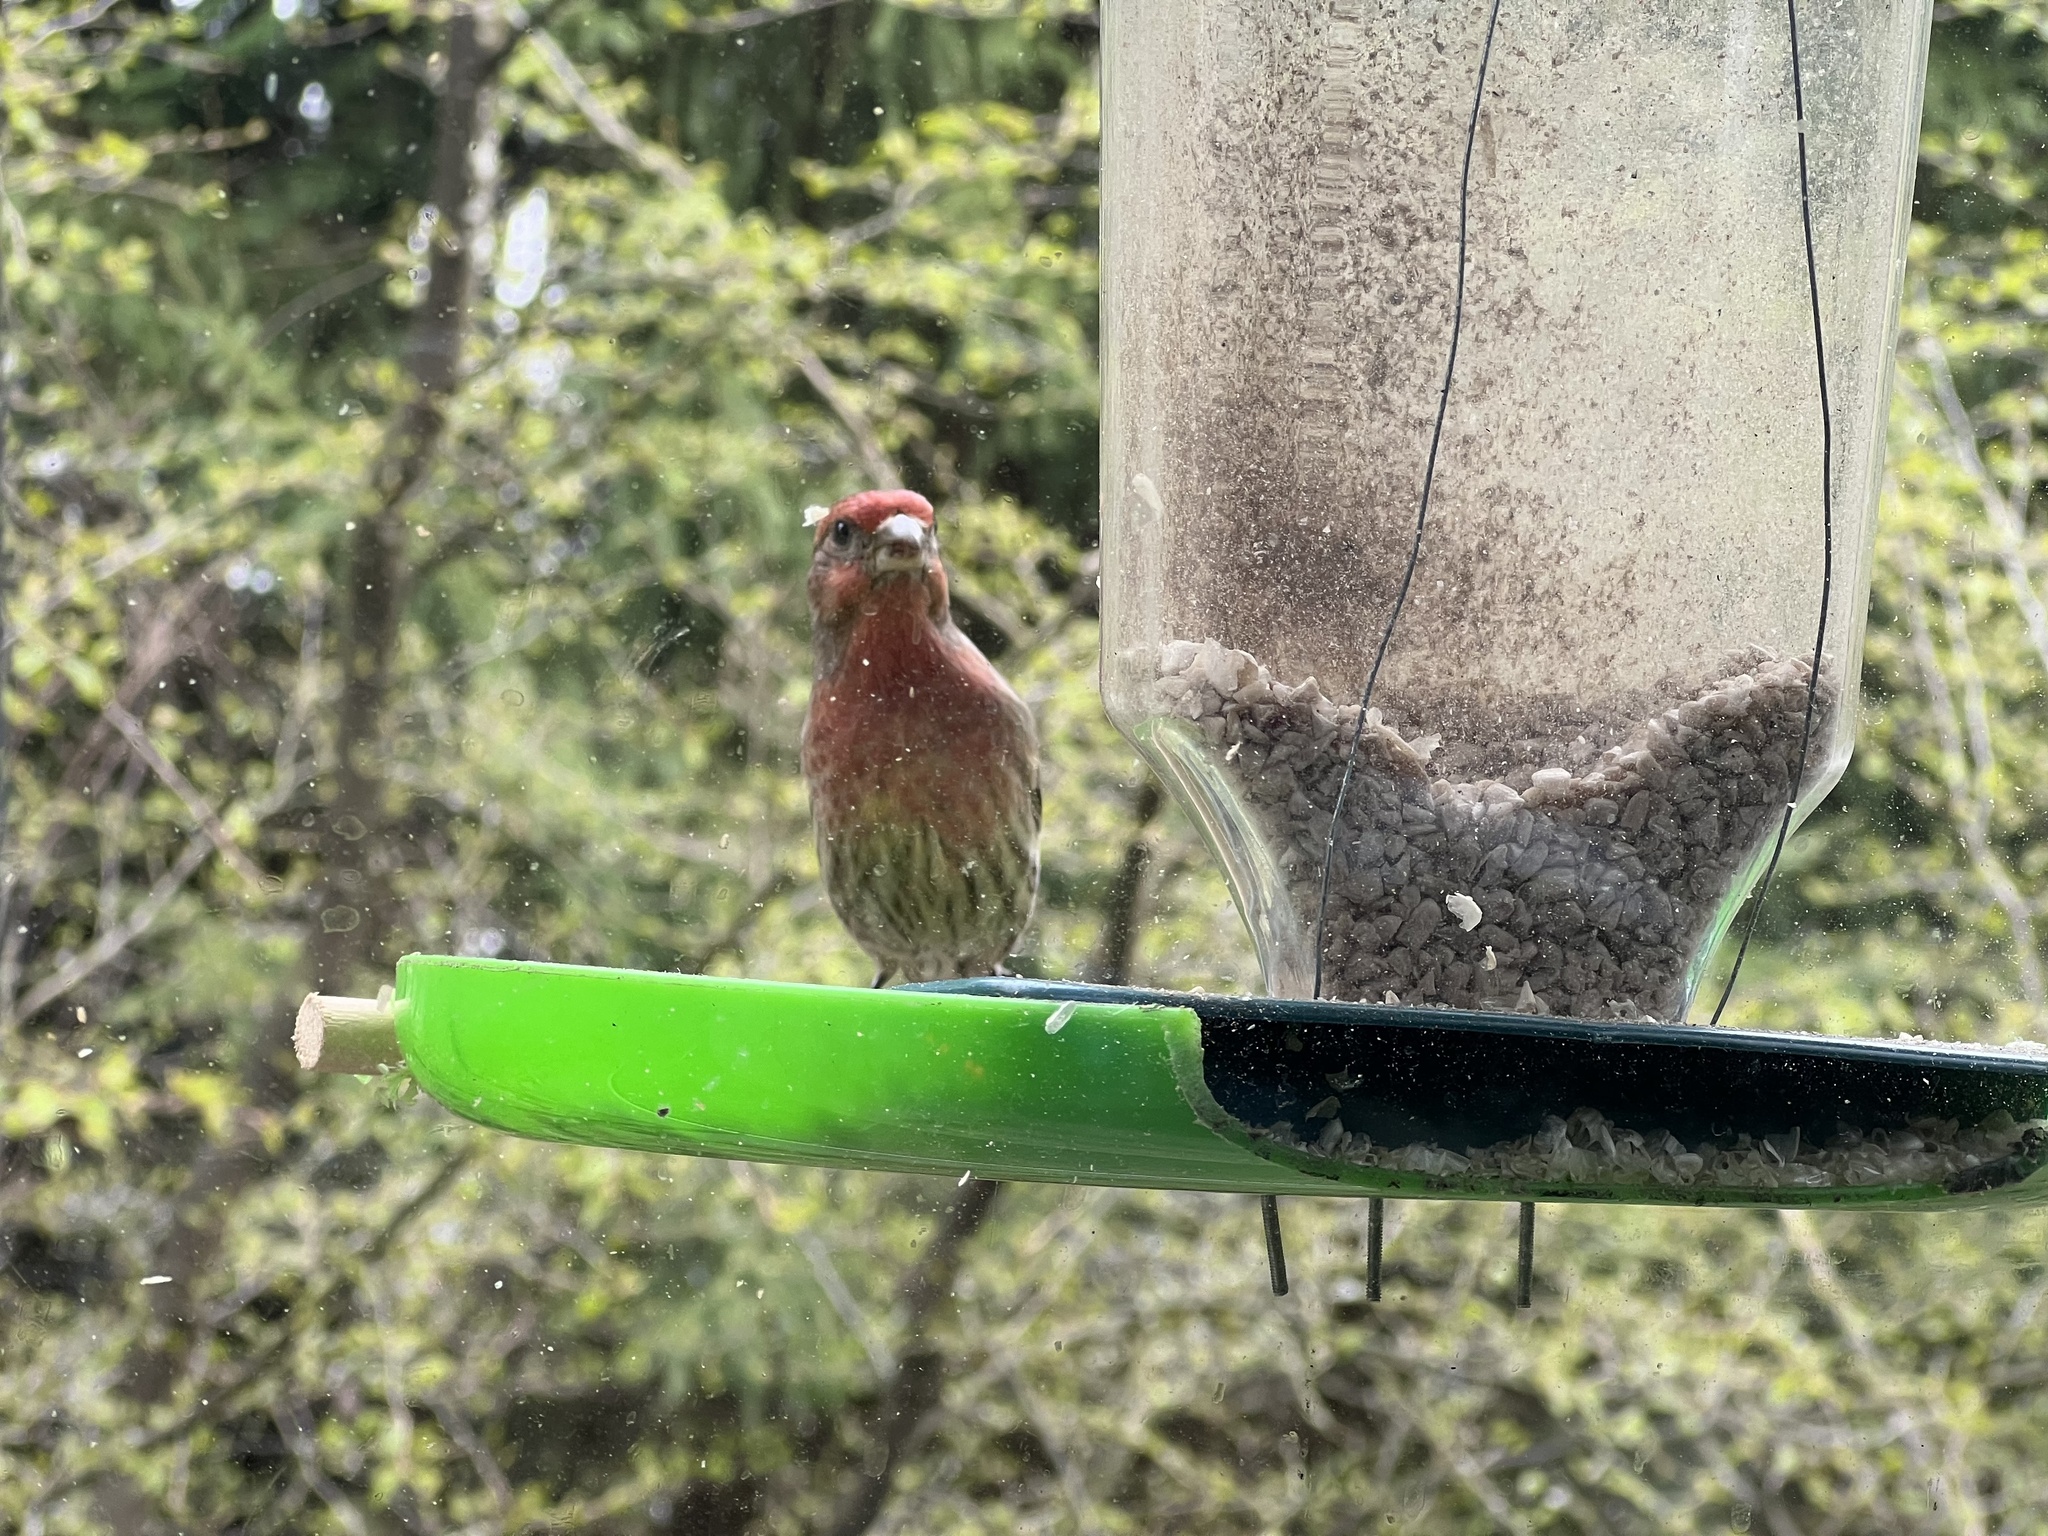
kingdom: Animalia
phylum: Chordata
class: Aves
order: Passeriformes
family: Fringillidae
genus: Haemorhous
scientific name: Haemorhous mexicanus
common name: House finch
